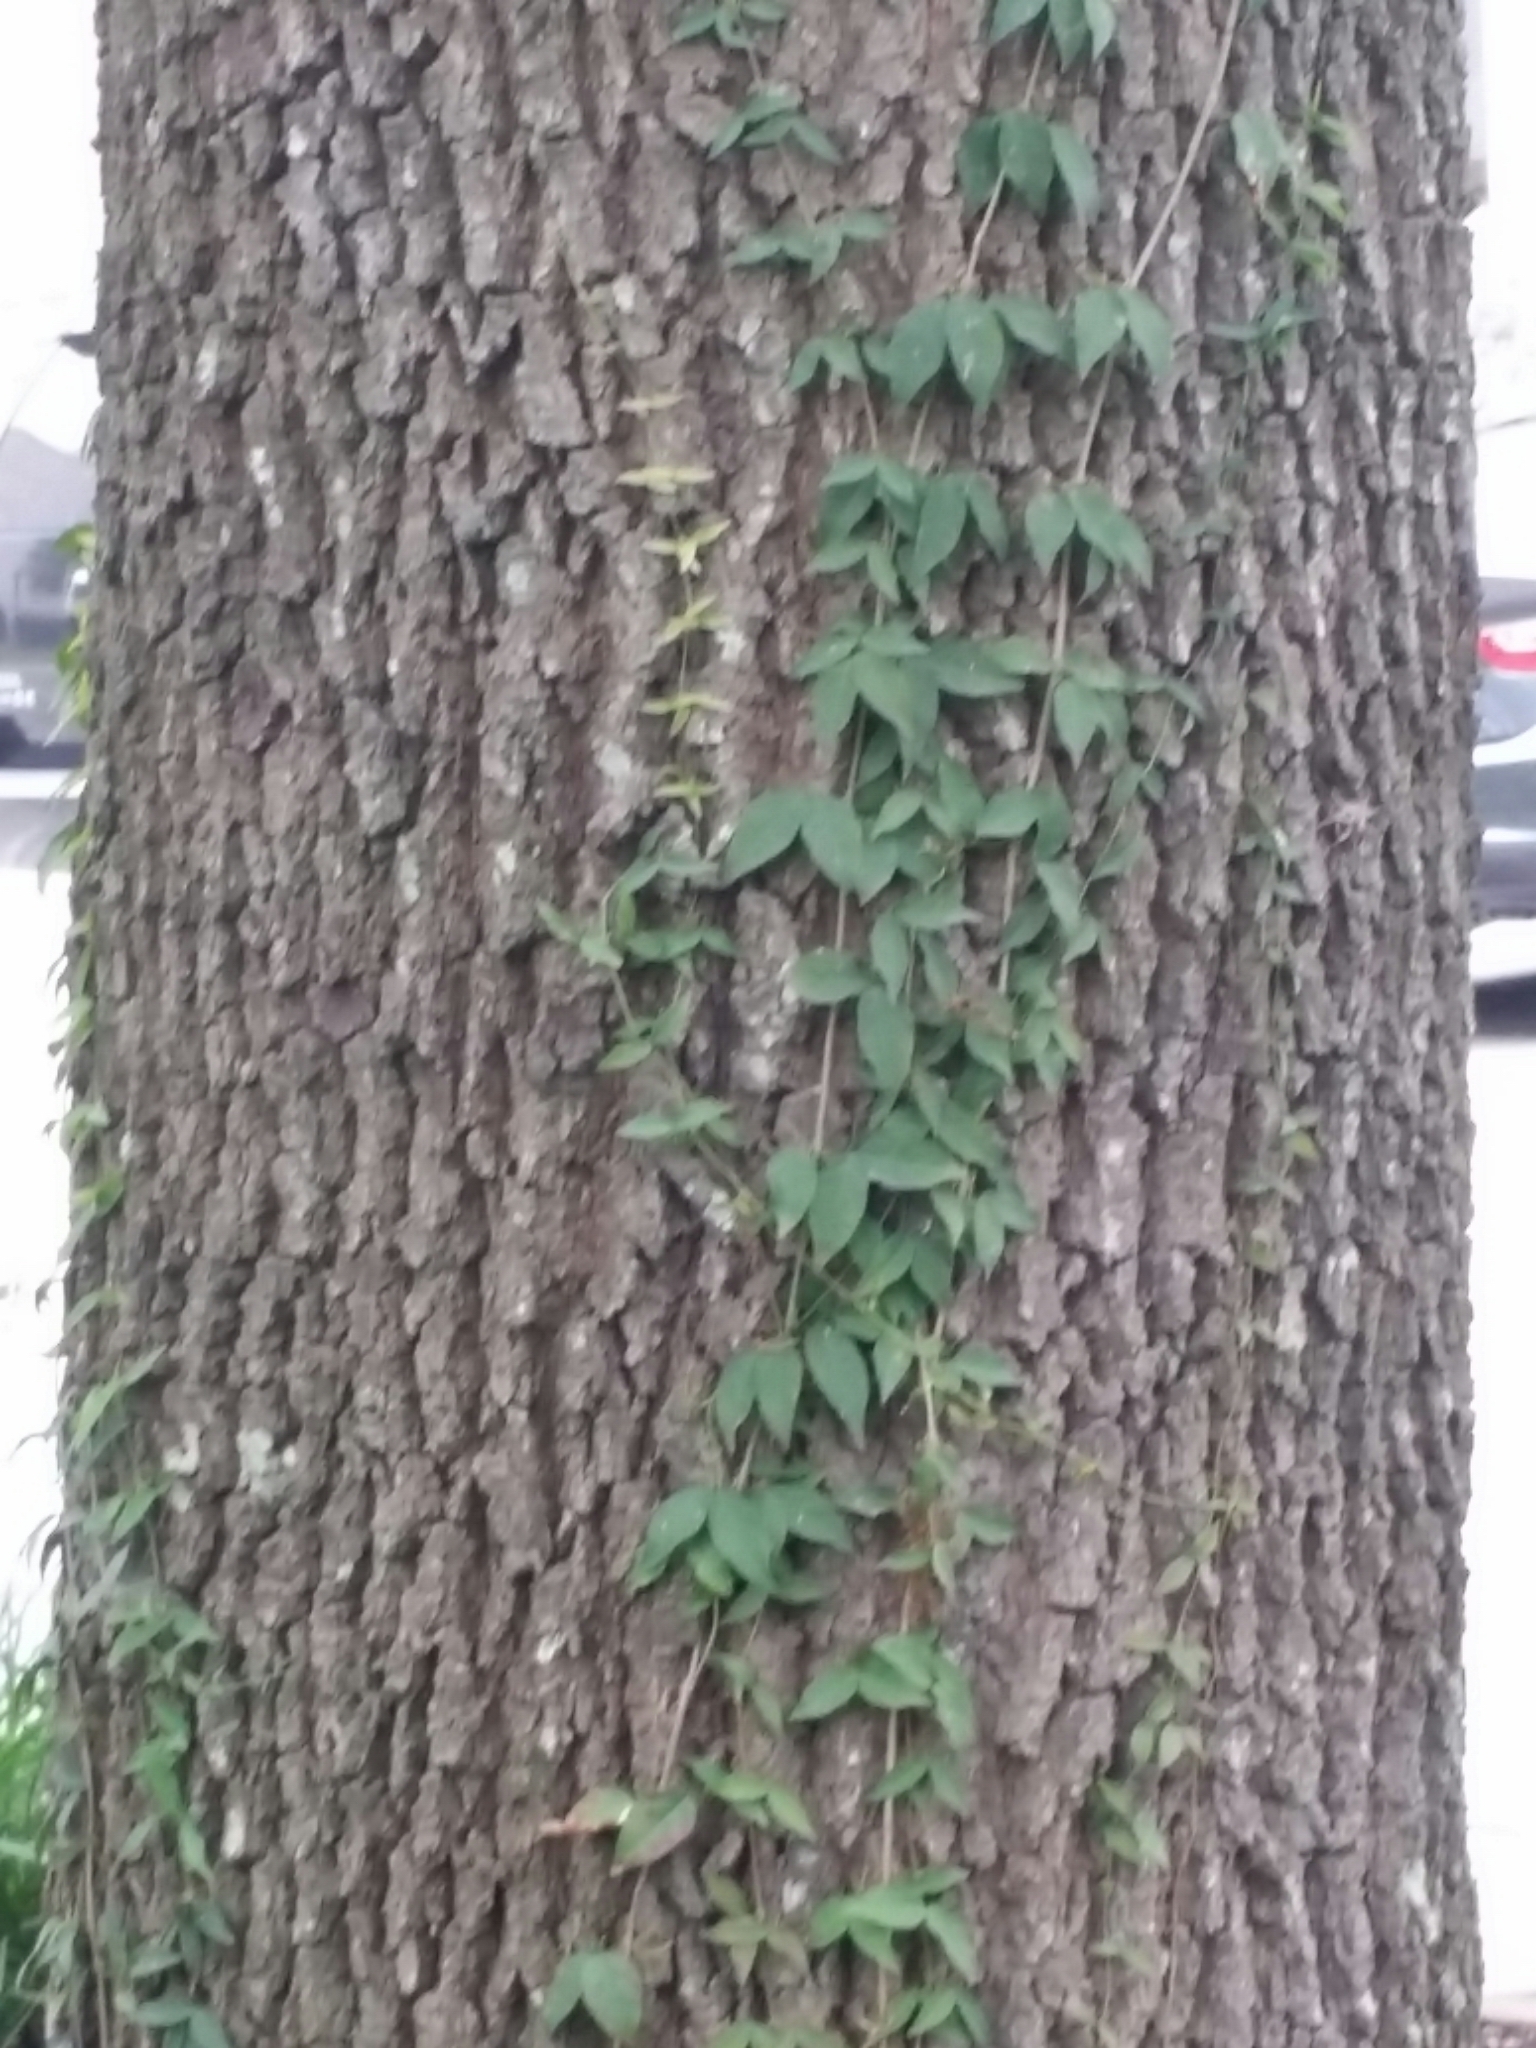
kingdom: Plantae
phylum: Tracheophyta
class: Magnoliopsida
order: Lamiales
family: Bignoniaceae
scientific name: Bignoniaceae
